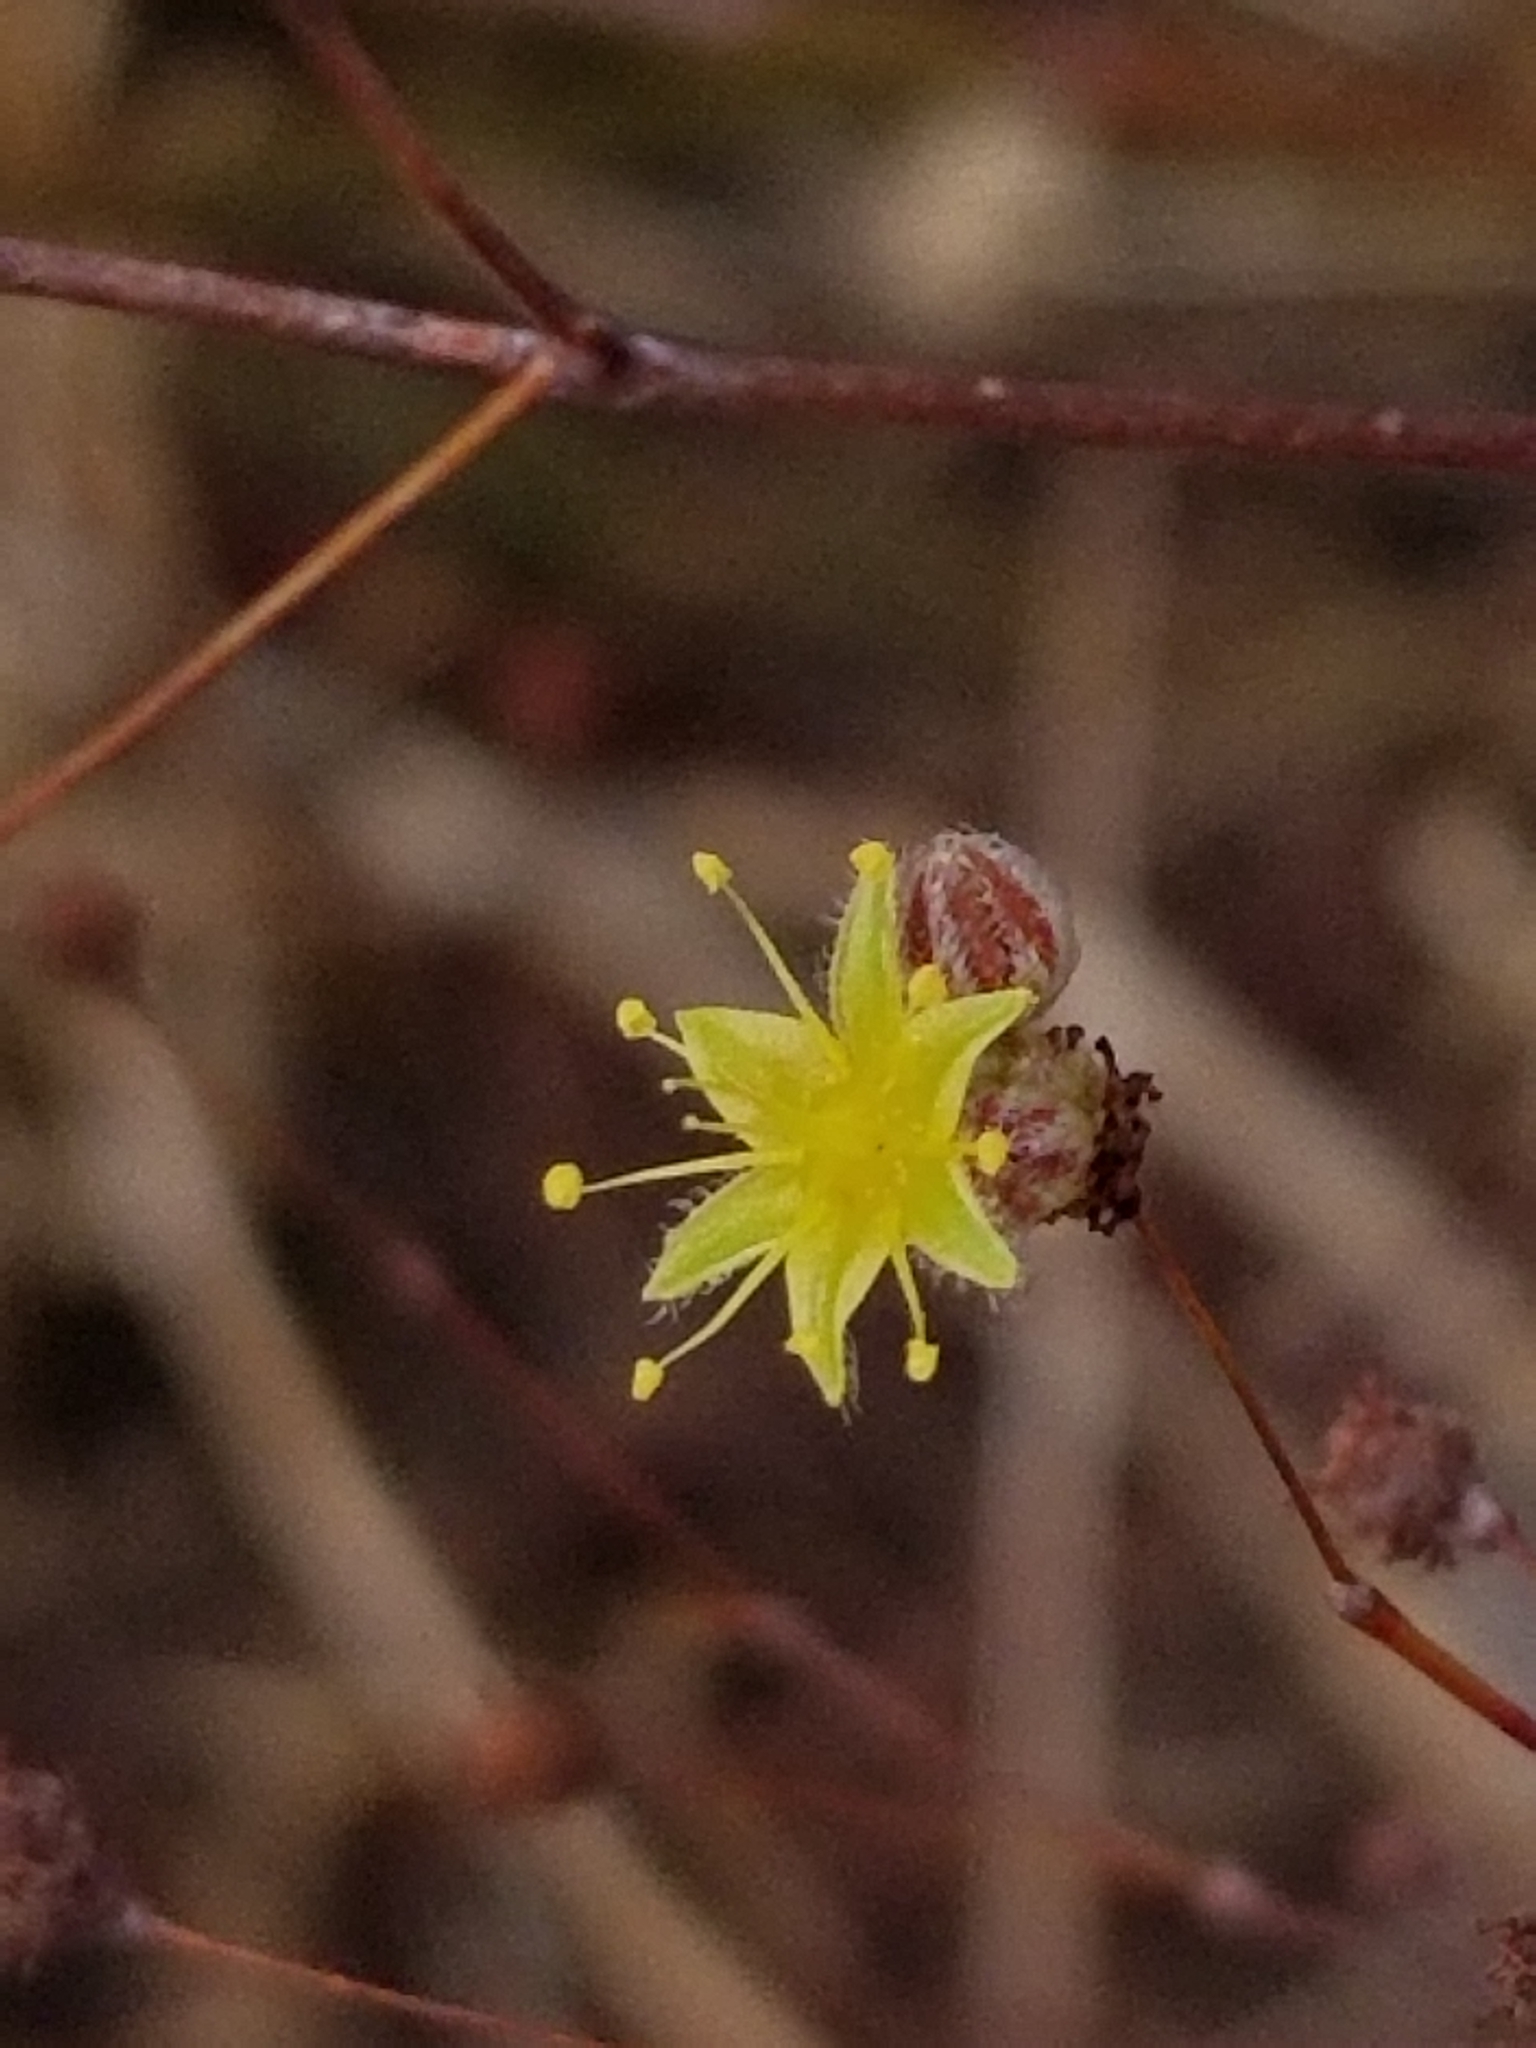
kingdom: Plantae
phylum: Tracheophyta
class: Magnoliopsida
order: Caryophyllales
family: Polygonaceae
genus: Eriogonum
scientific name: Eriogonum inflatum
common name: Desert trumpet
